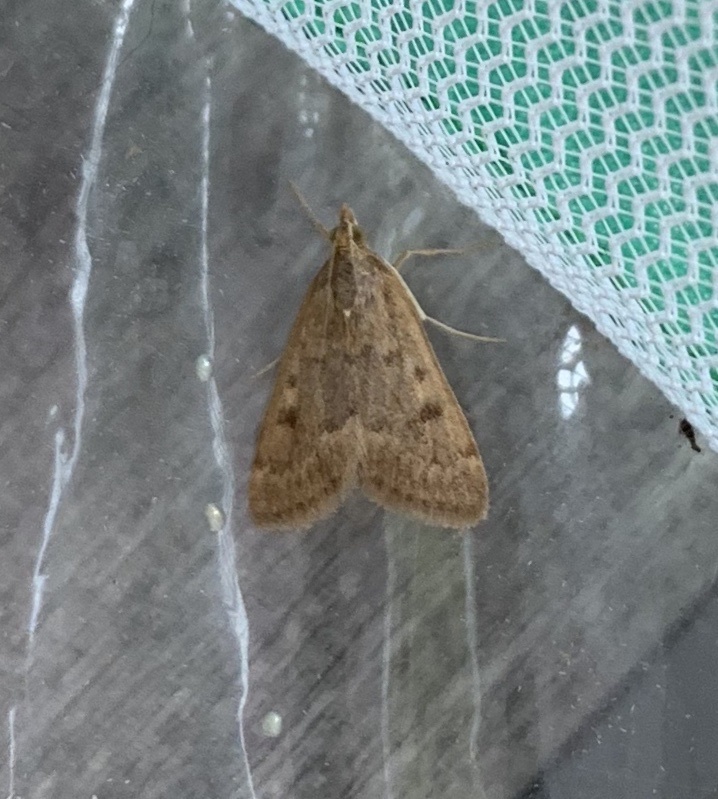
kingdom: Animalia
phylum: Arthropoda
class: Insecta
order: Lepidoptera
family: Crambidae
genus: Achyra
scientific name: Achyra rantalis
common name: Garden webworm
